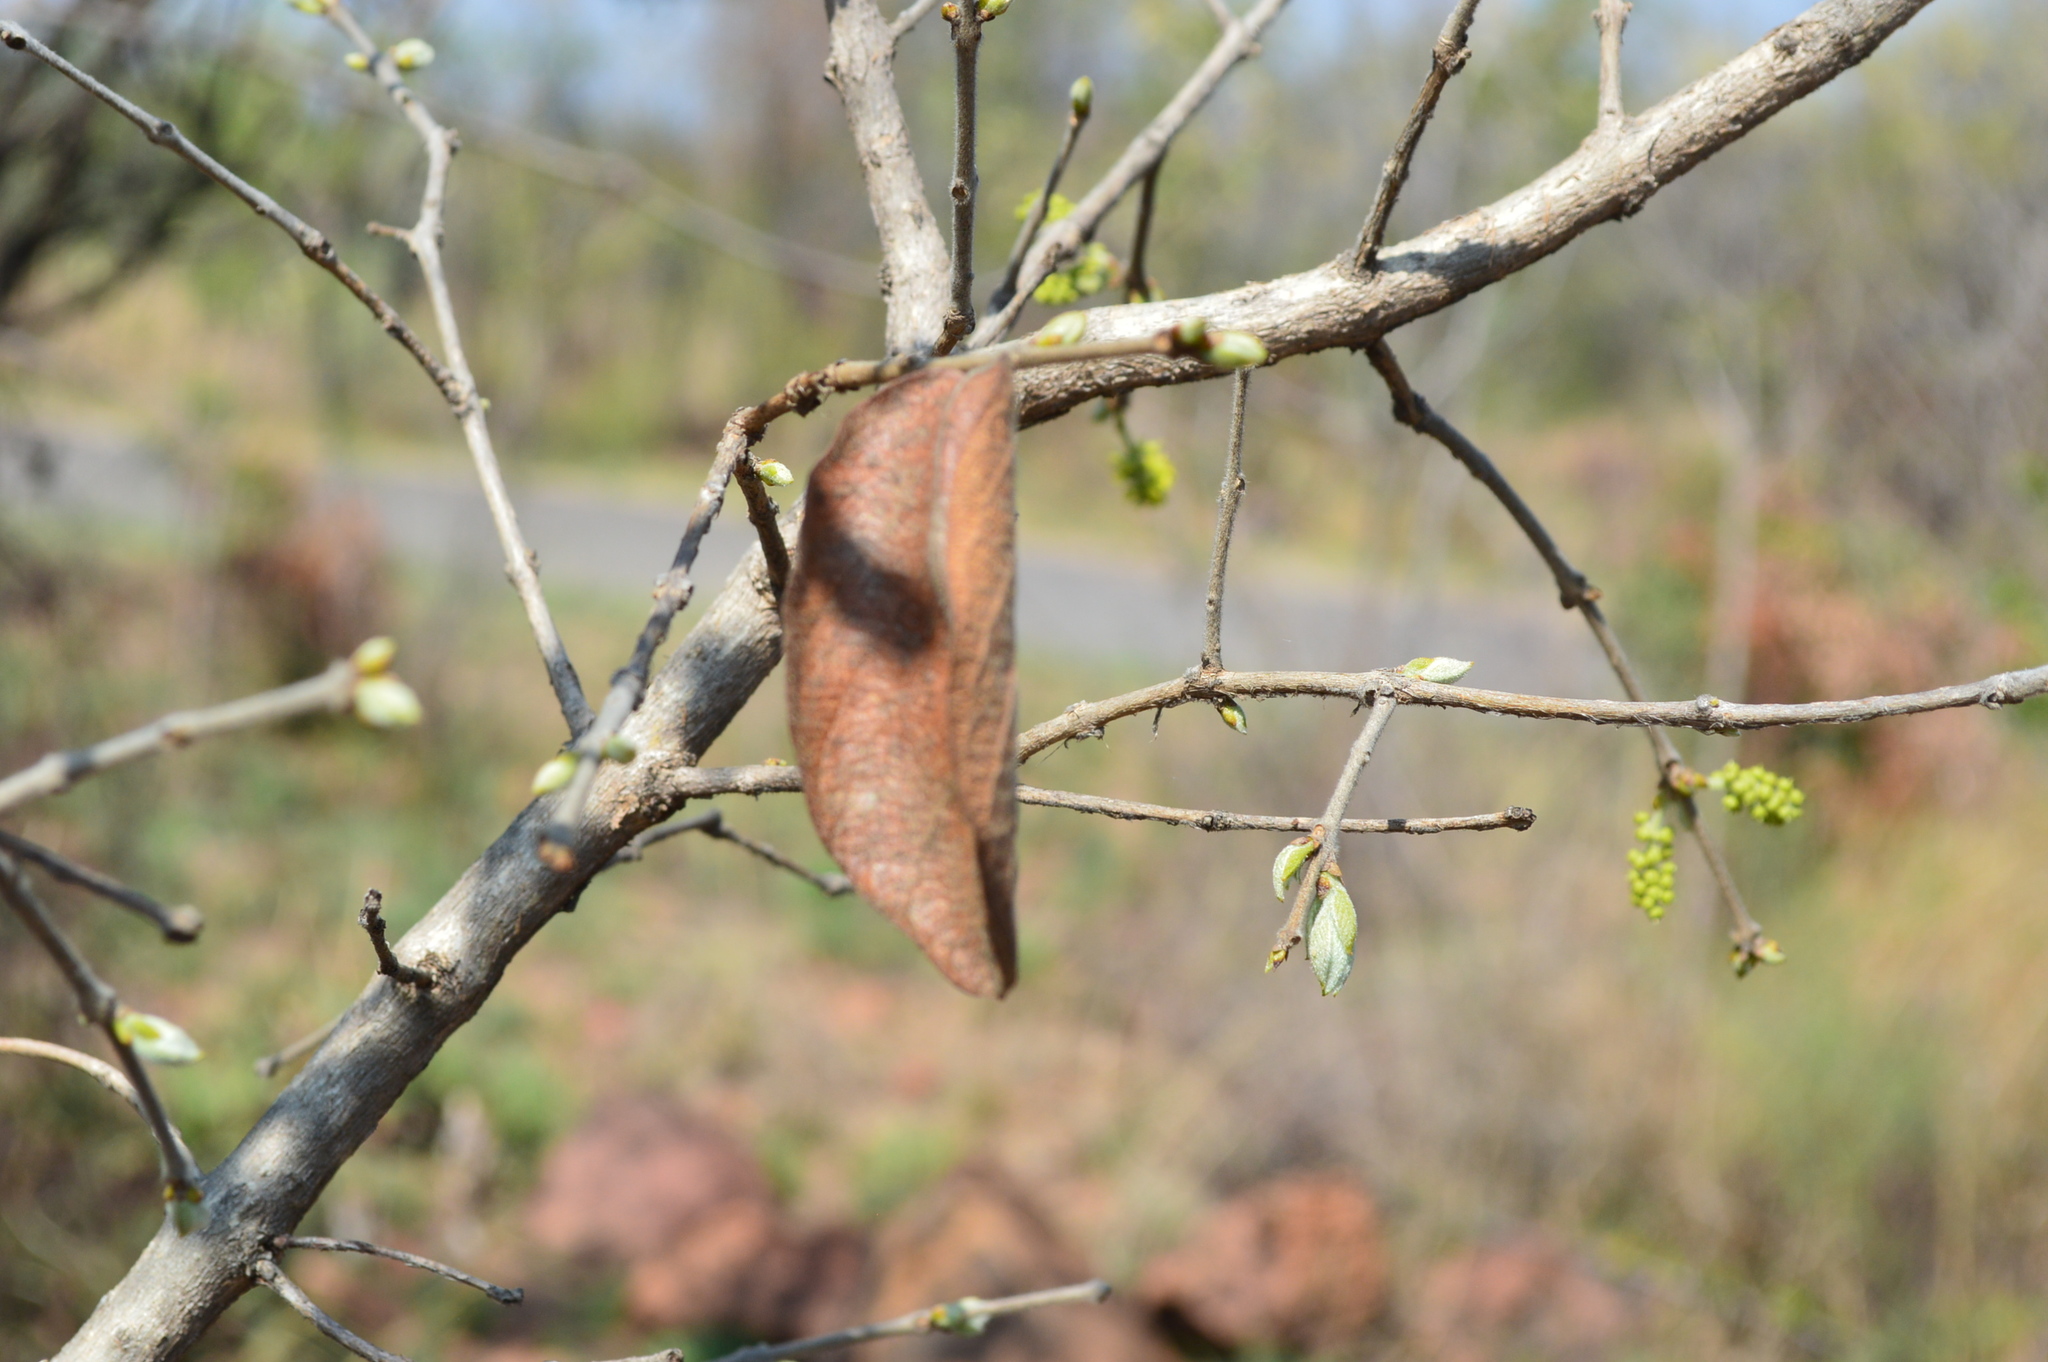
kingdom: Plantae
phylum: Tracheophyta
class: Magnoliopsida
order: Myrtales
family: Combretaceae
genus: Combretum
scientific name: Combretum molle
